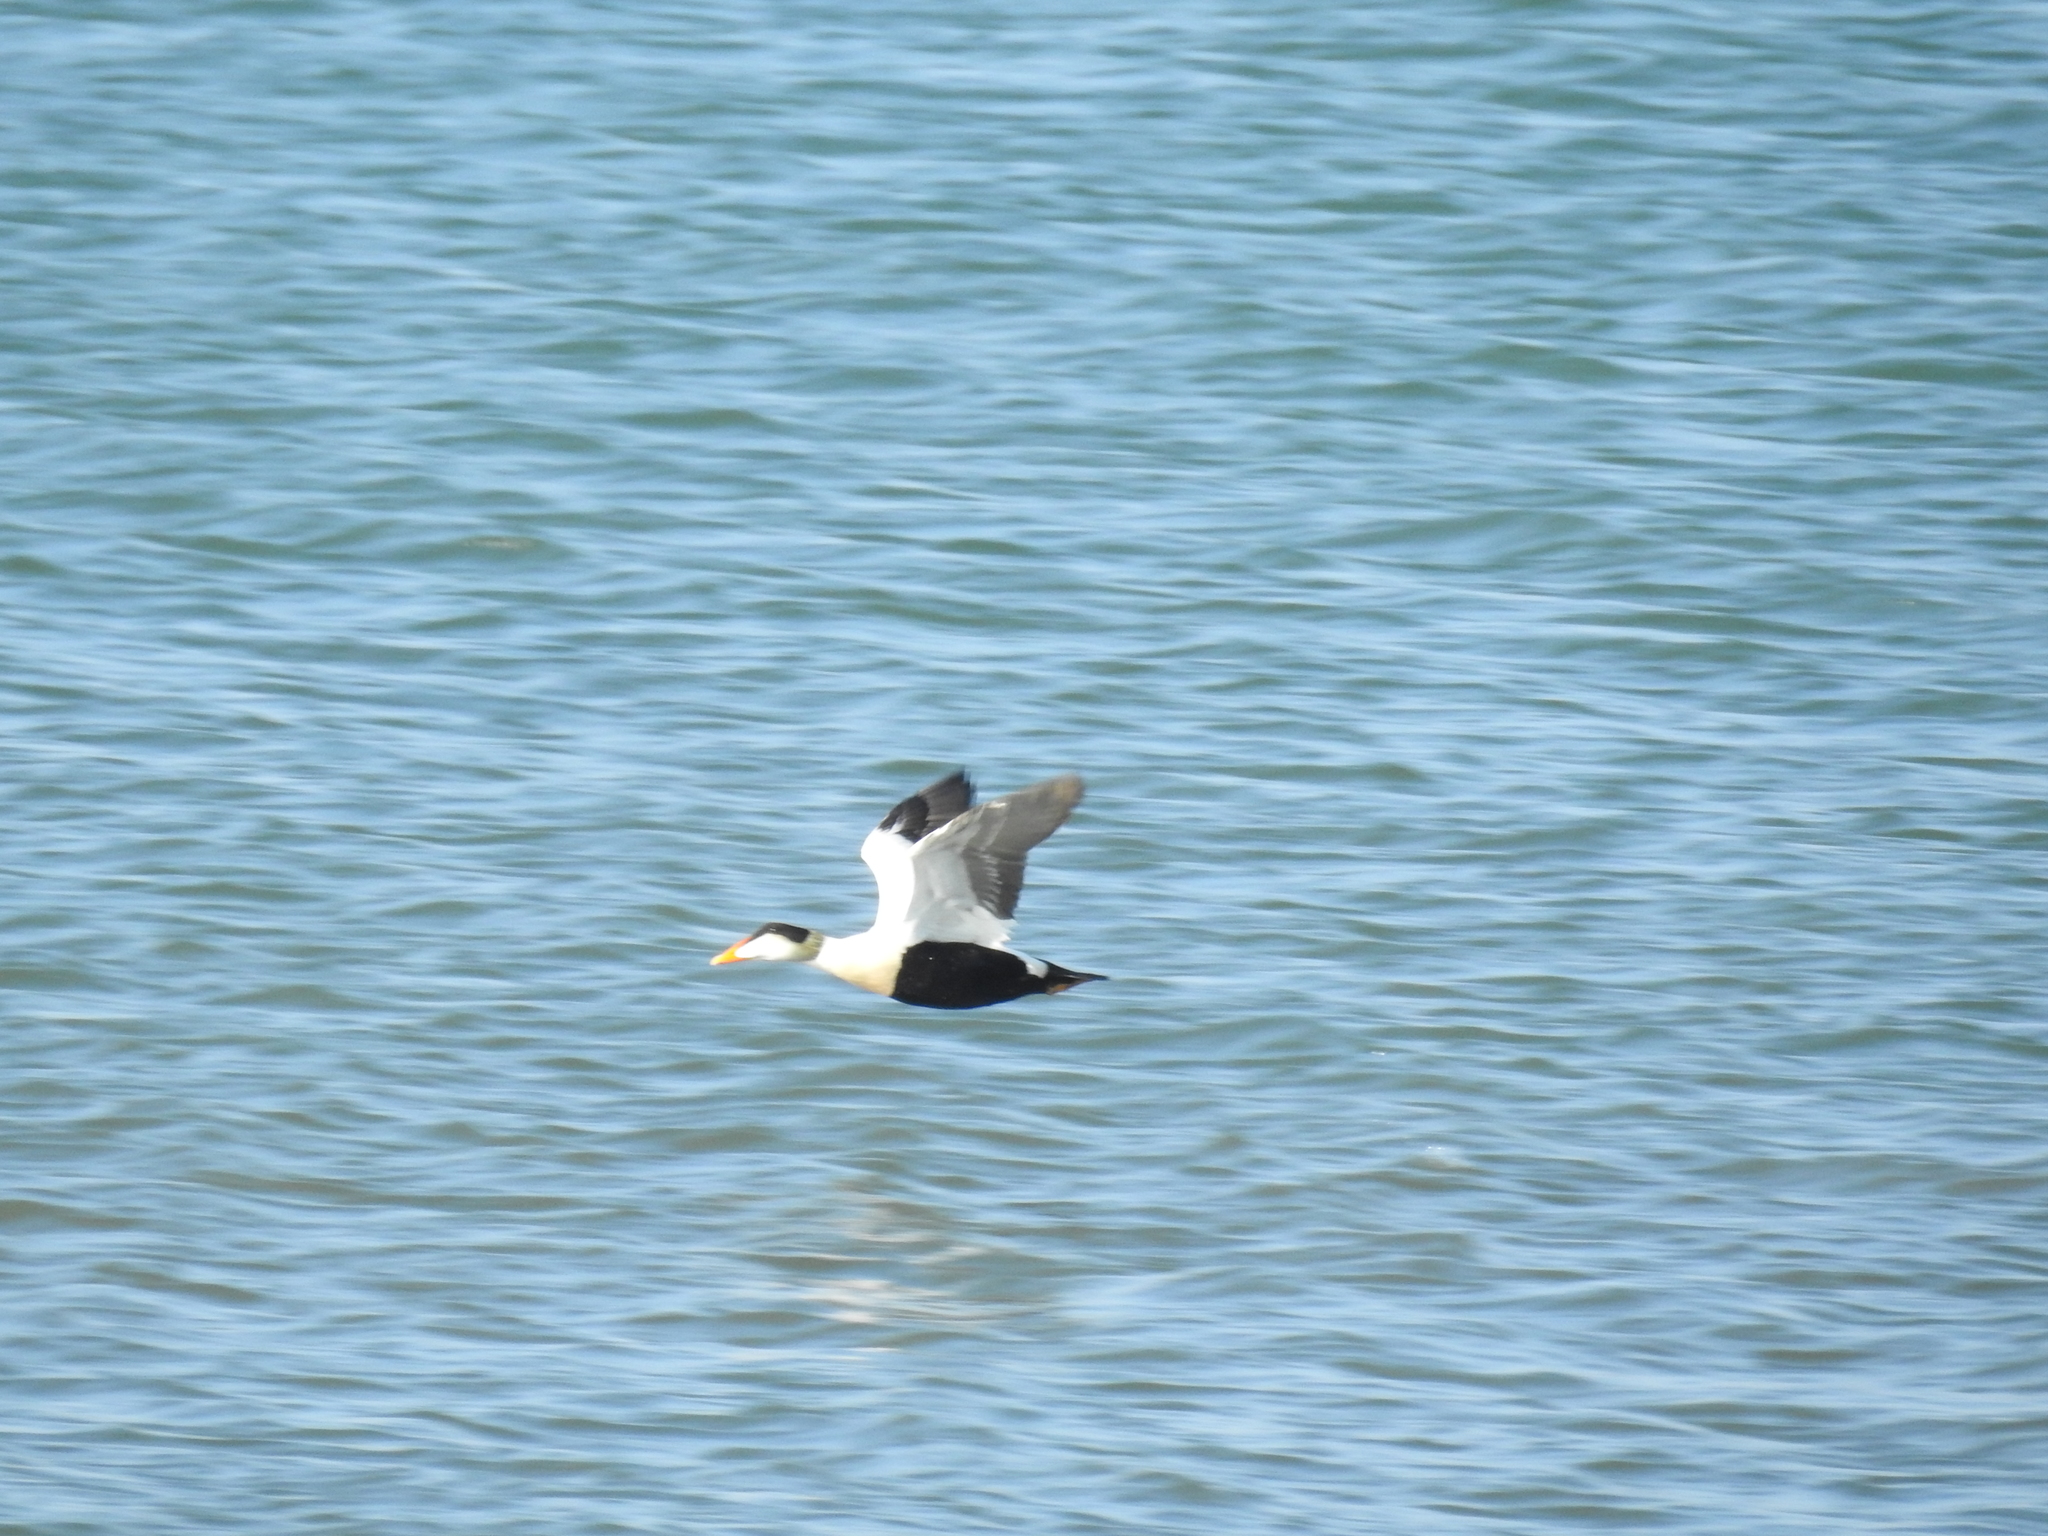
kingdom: Animalia
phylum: Chordata
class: Aves
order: Anseriformes
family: Anatidae
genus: Somateria
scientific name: Somateria mollissima
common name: Common eider
